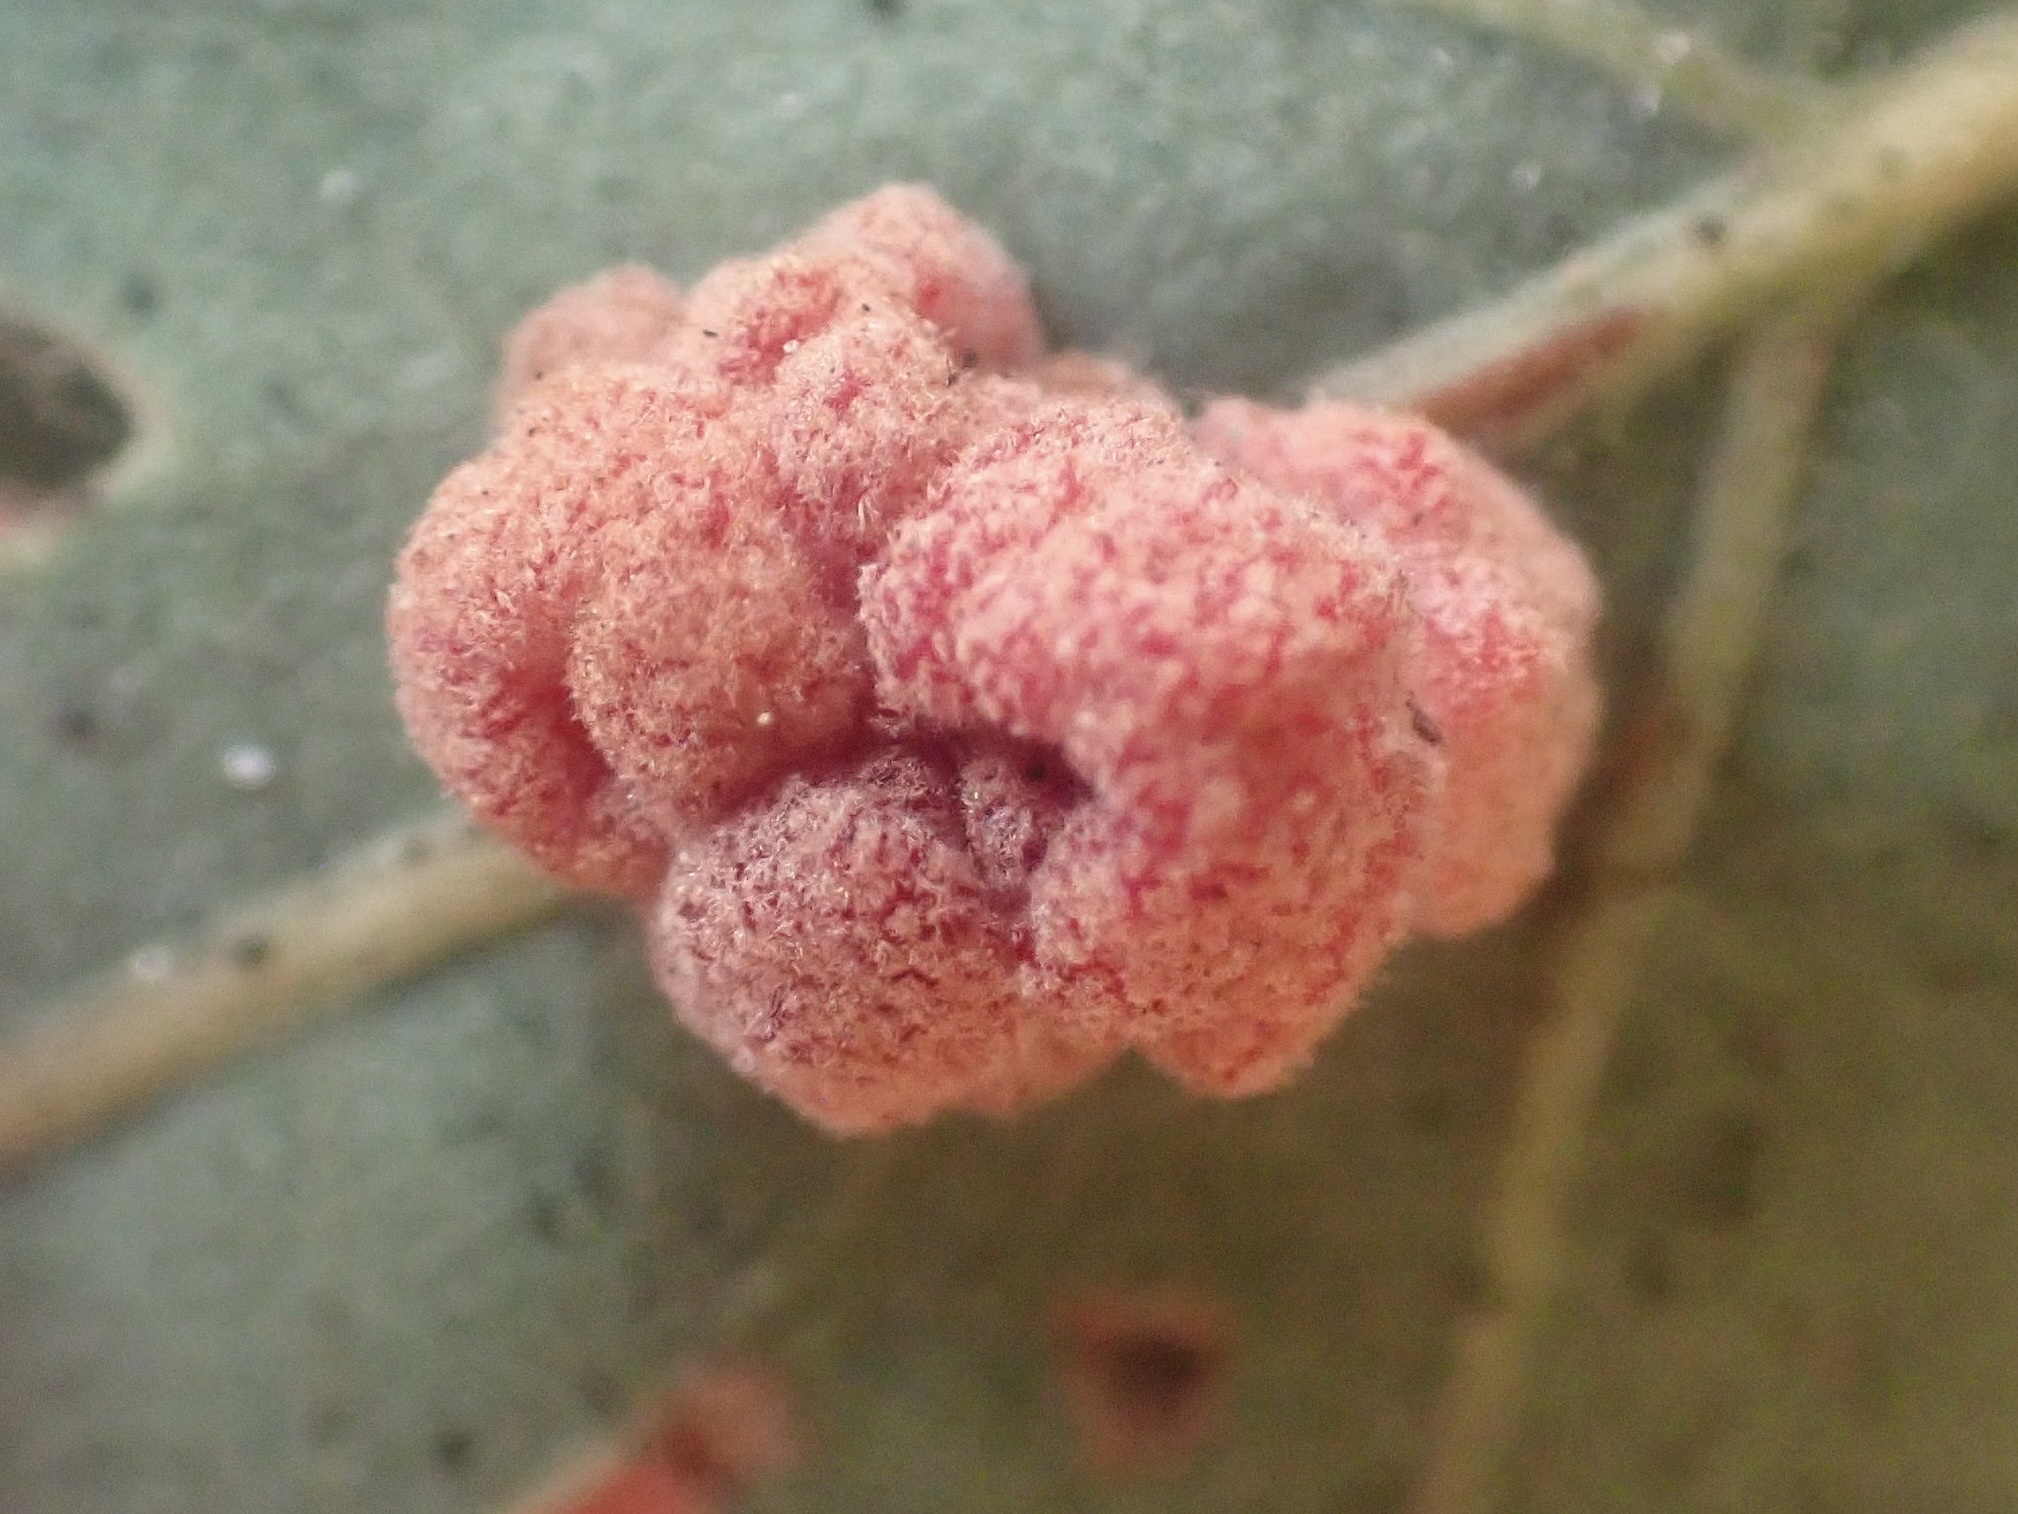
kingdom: Animalia
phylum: Arthropoda
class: Insecta
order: Hymenoptera
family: Cynipidae
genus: Andricus
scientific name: Andricus
